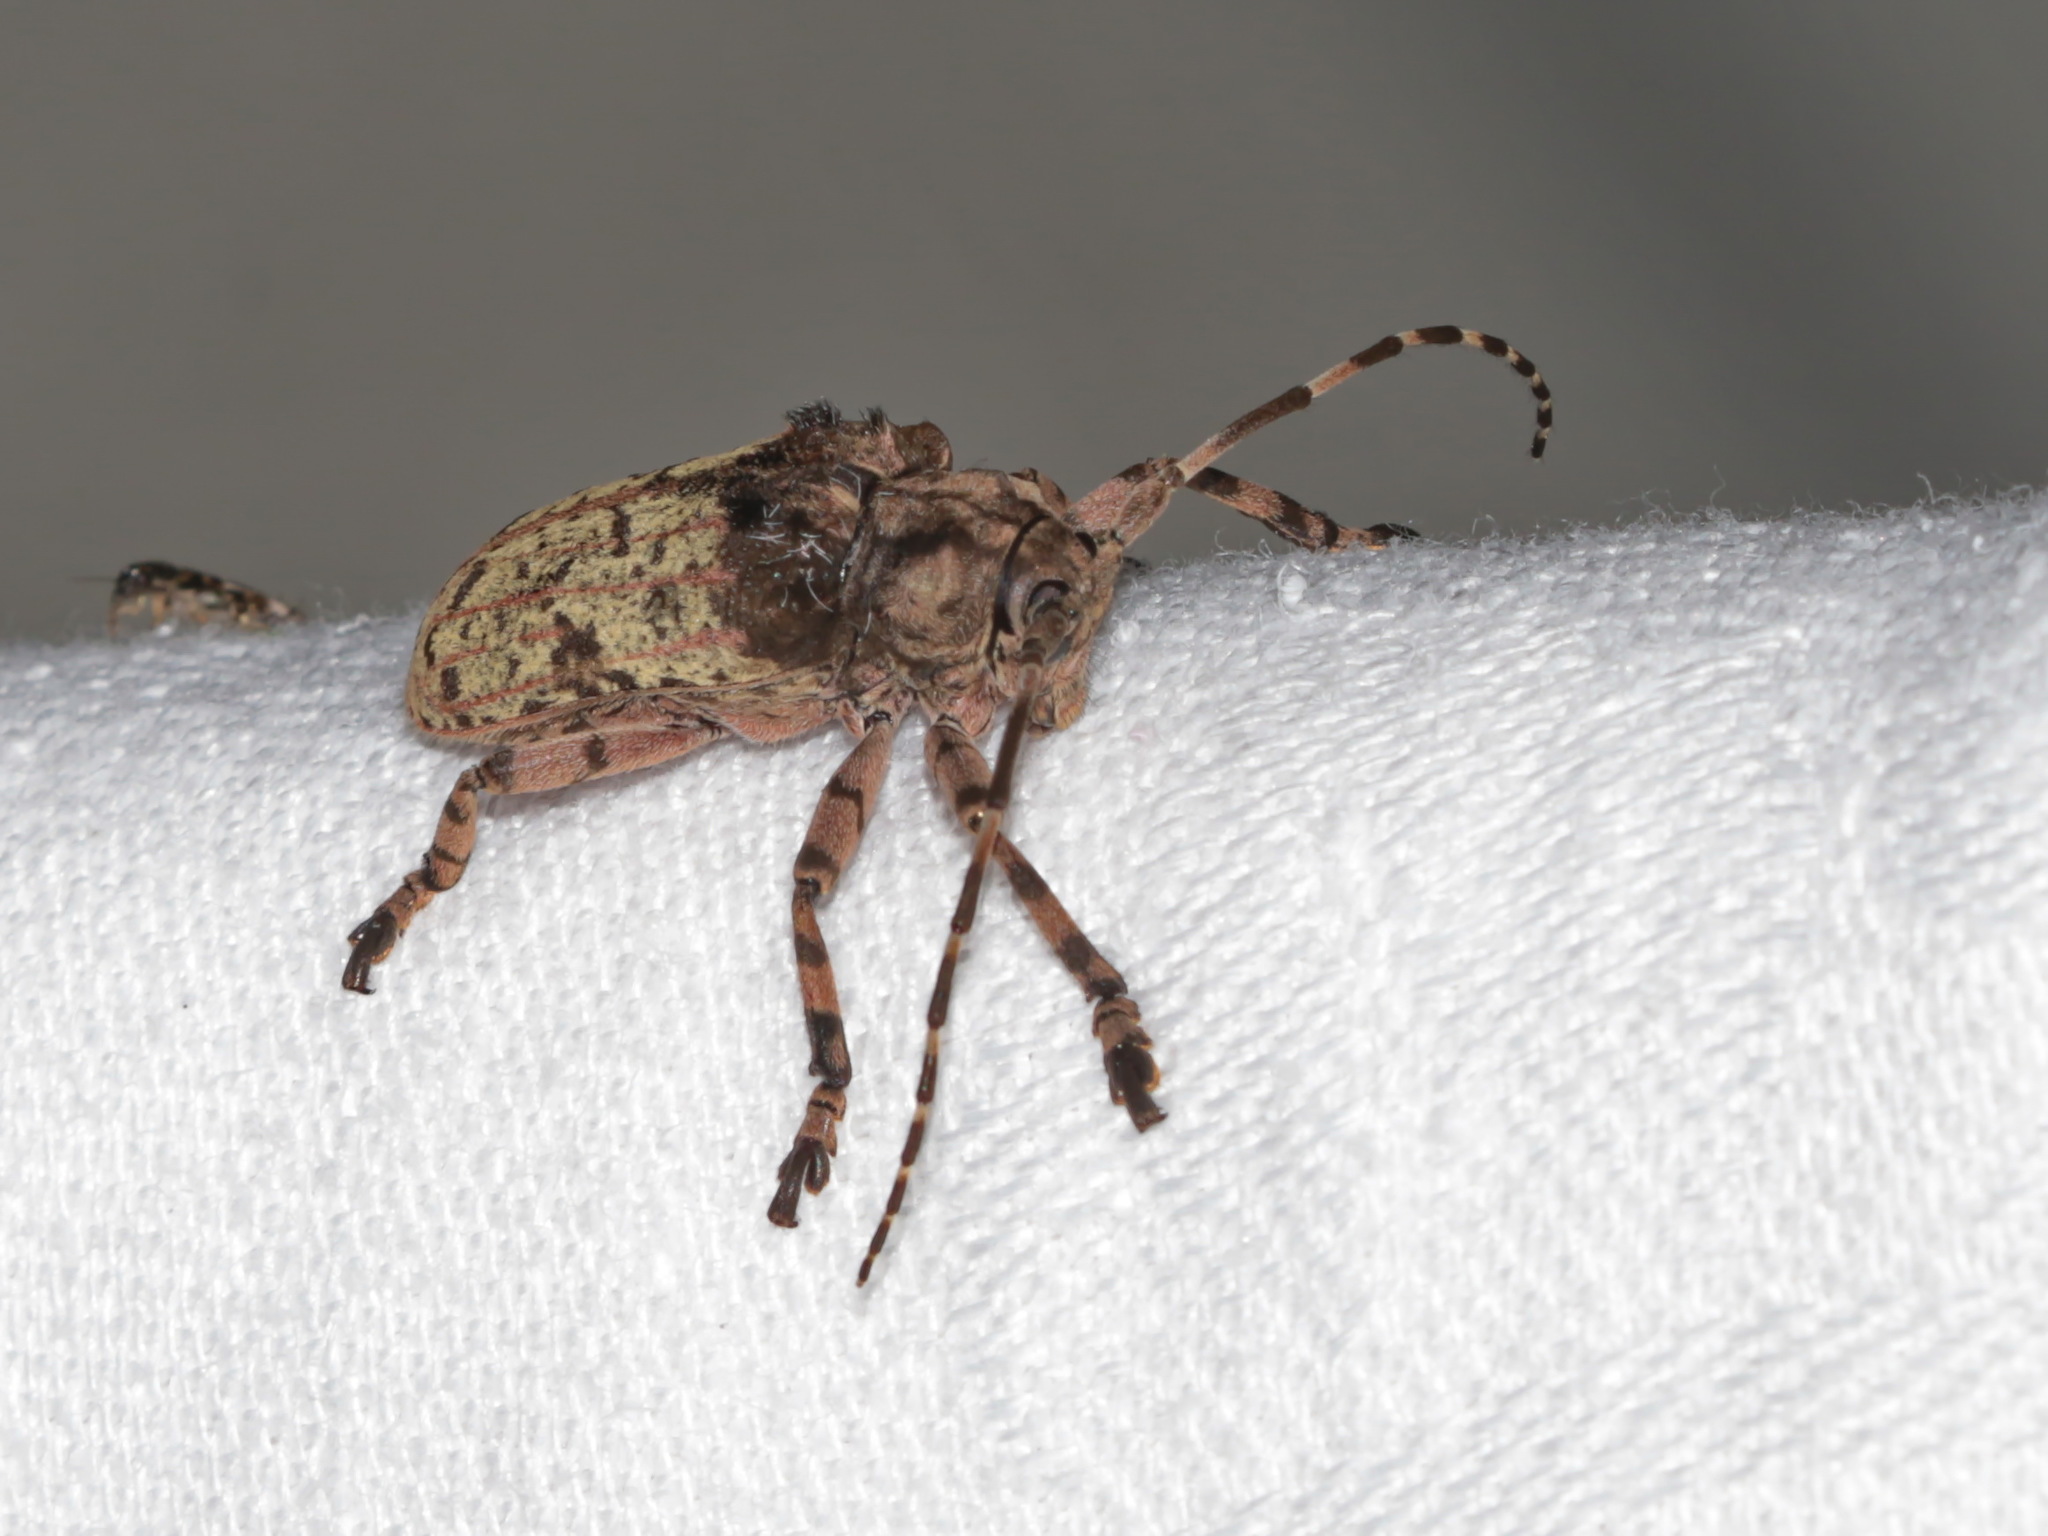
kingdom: Animalia
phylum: Arthropoda
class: Insecta
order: Coleoptera
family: Cerambycidae
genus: Moechotypa
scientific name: Moechotypa suffusa
